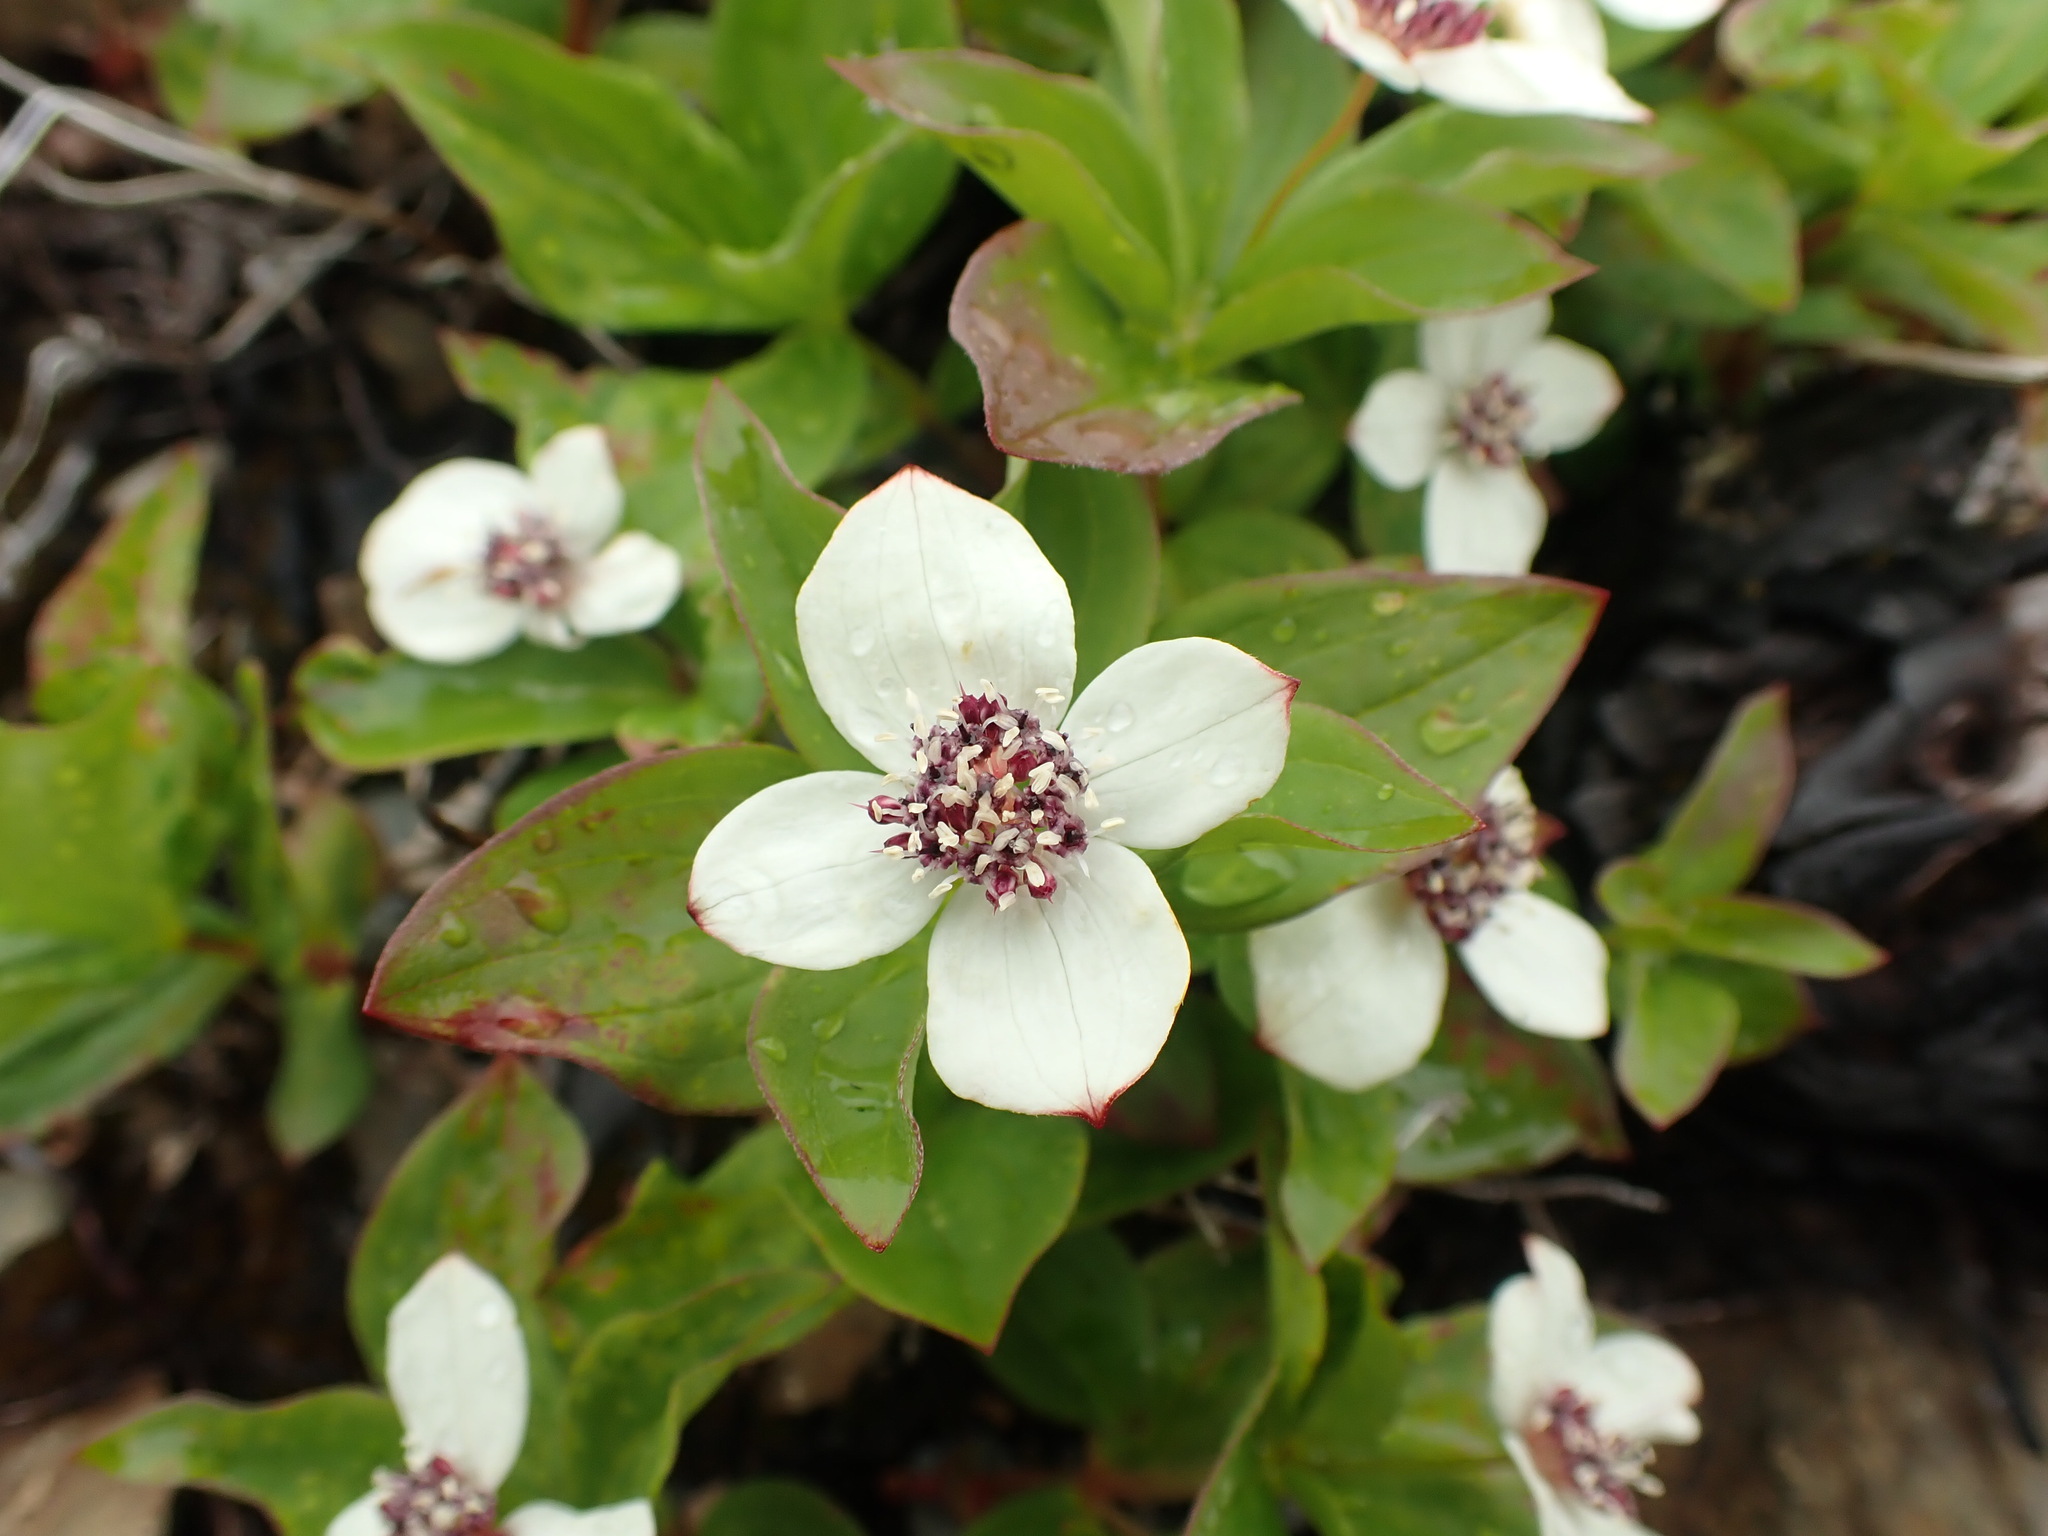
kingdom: Plantae
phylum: Tracheophyta
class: Magnoliopsida
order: Cornales
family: Cornaceae
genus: Cornus
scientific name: Cornus unalaschkensis
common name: Alaska bunchberry
